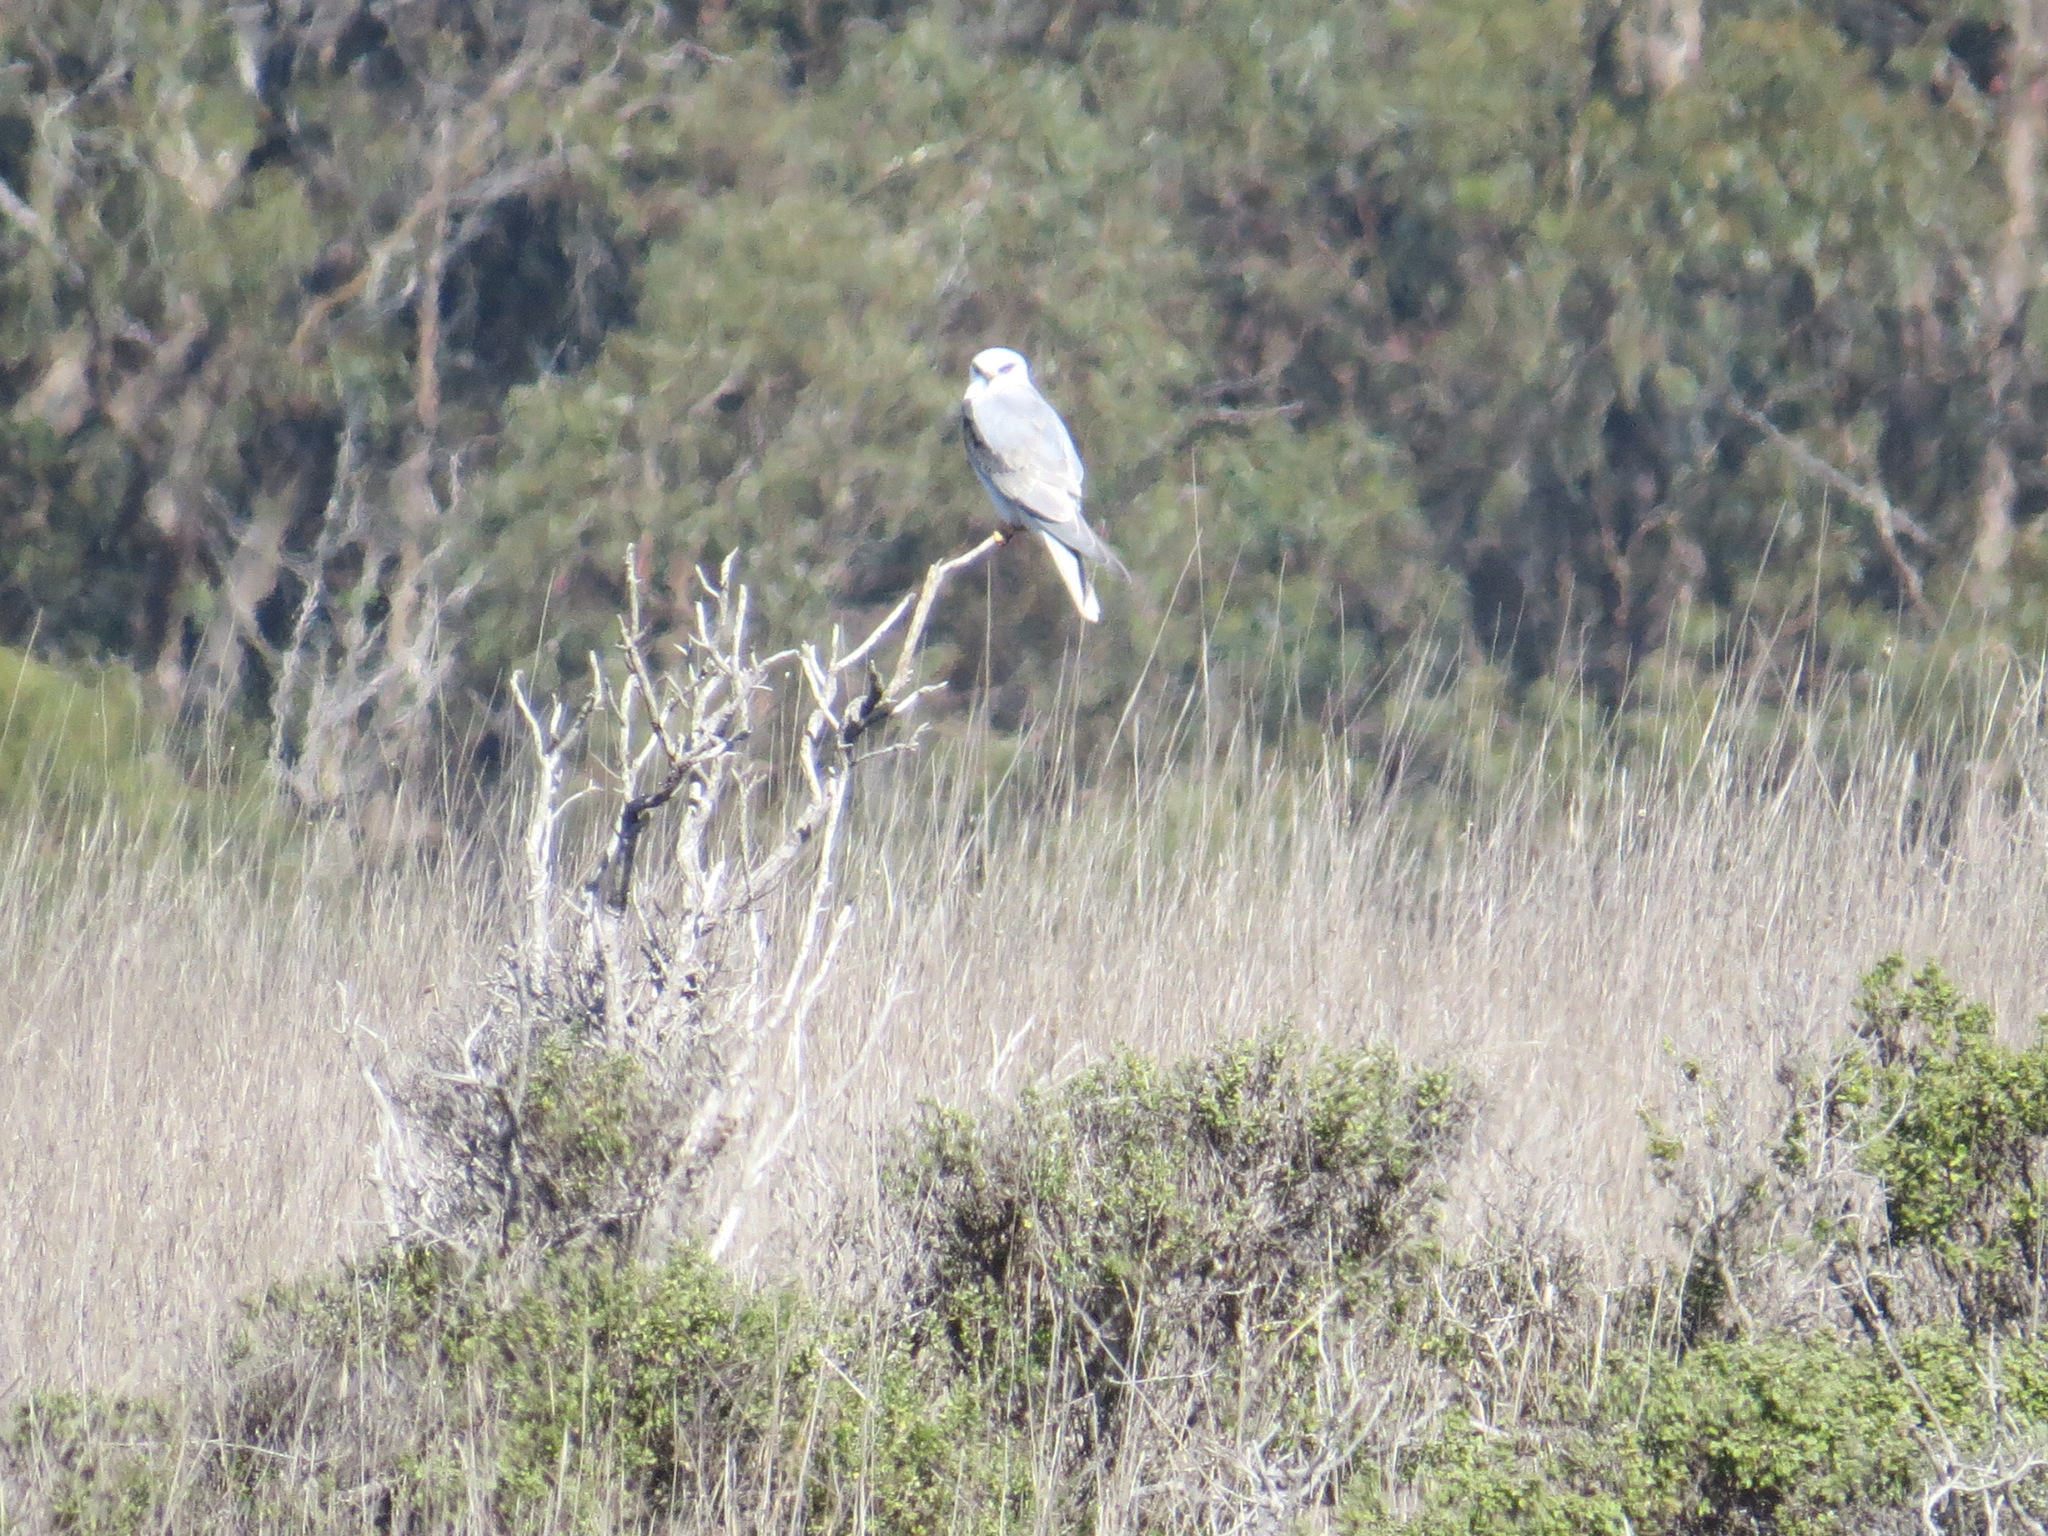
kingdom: Animalia
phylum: Chordata
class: Aves
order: Accipitriformes
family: Accipitridae
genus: Elanus
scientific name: Elanus leucurus
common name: White-tailed kite
